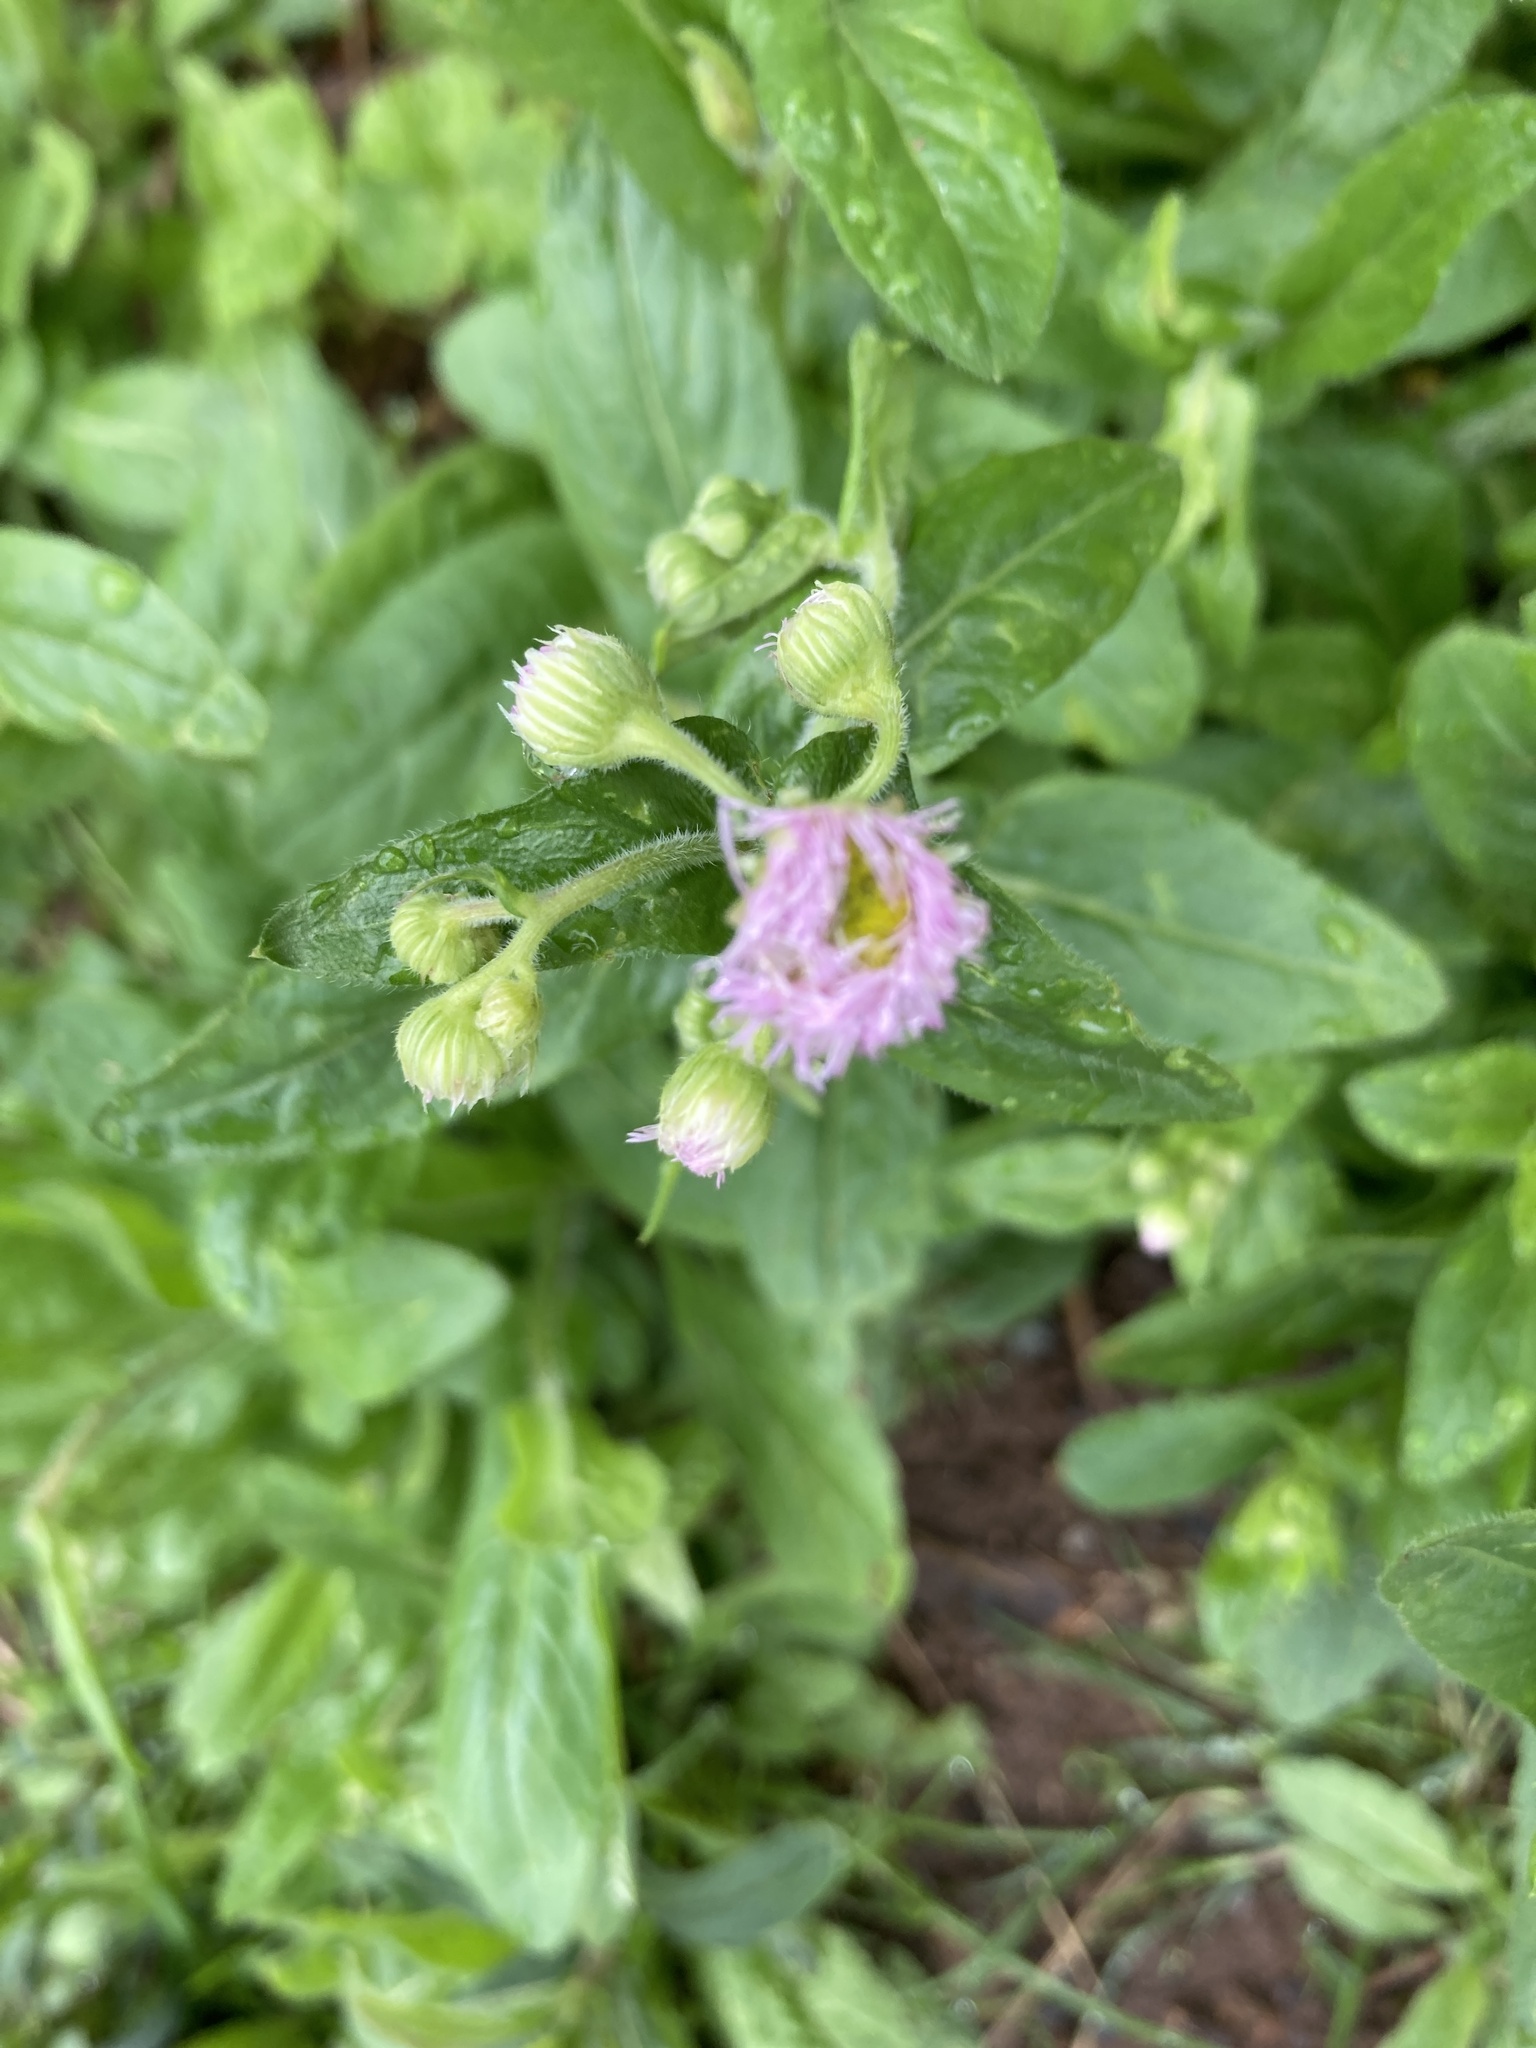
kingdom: Plantae
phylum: Tracheophyta
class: Magnoliopsida
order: Asterales
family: Asteraceae
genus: Erigeron
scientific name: Erigeron philadelphicus
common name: Robin's-plantain
